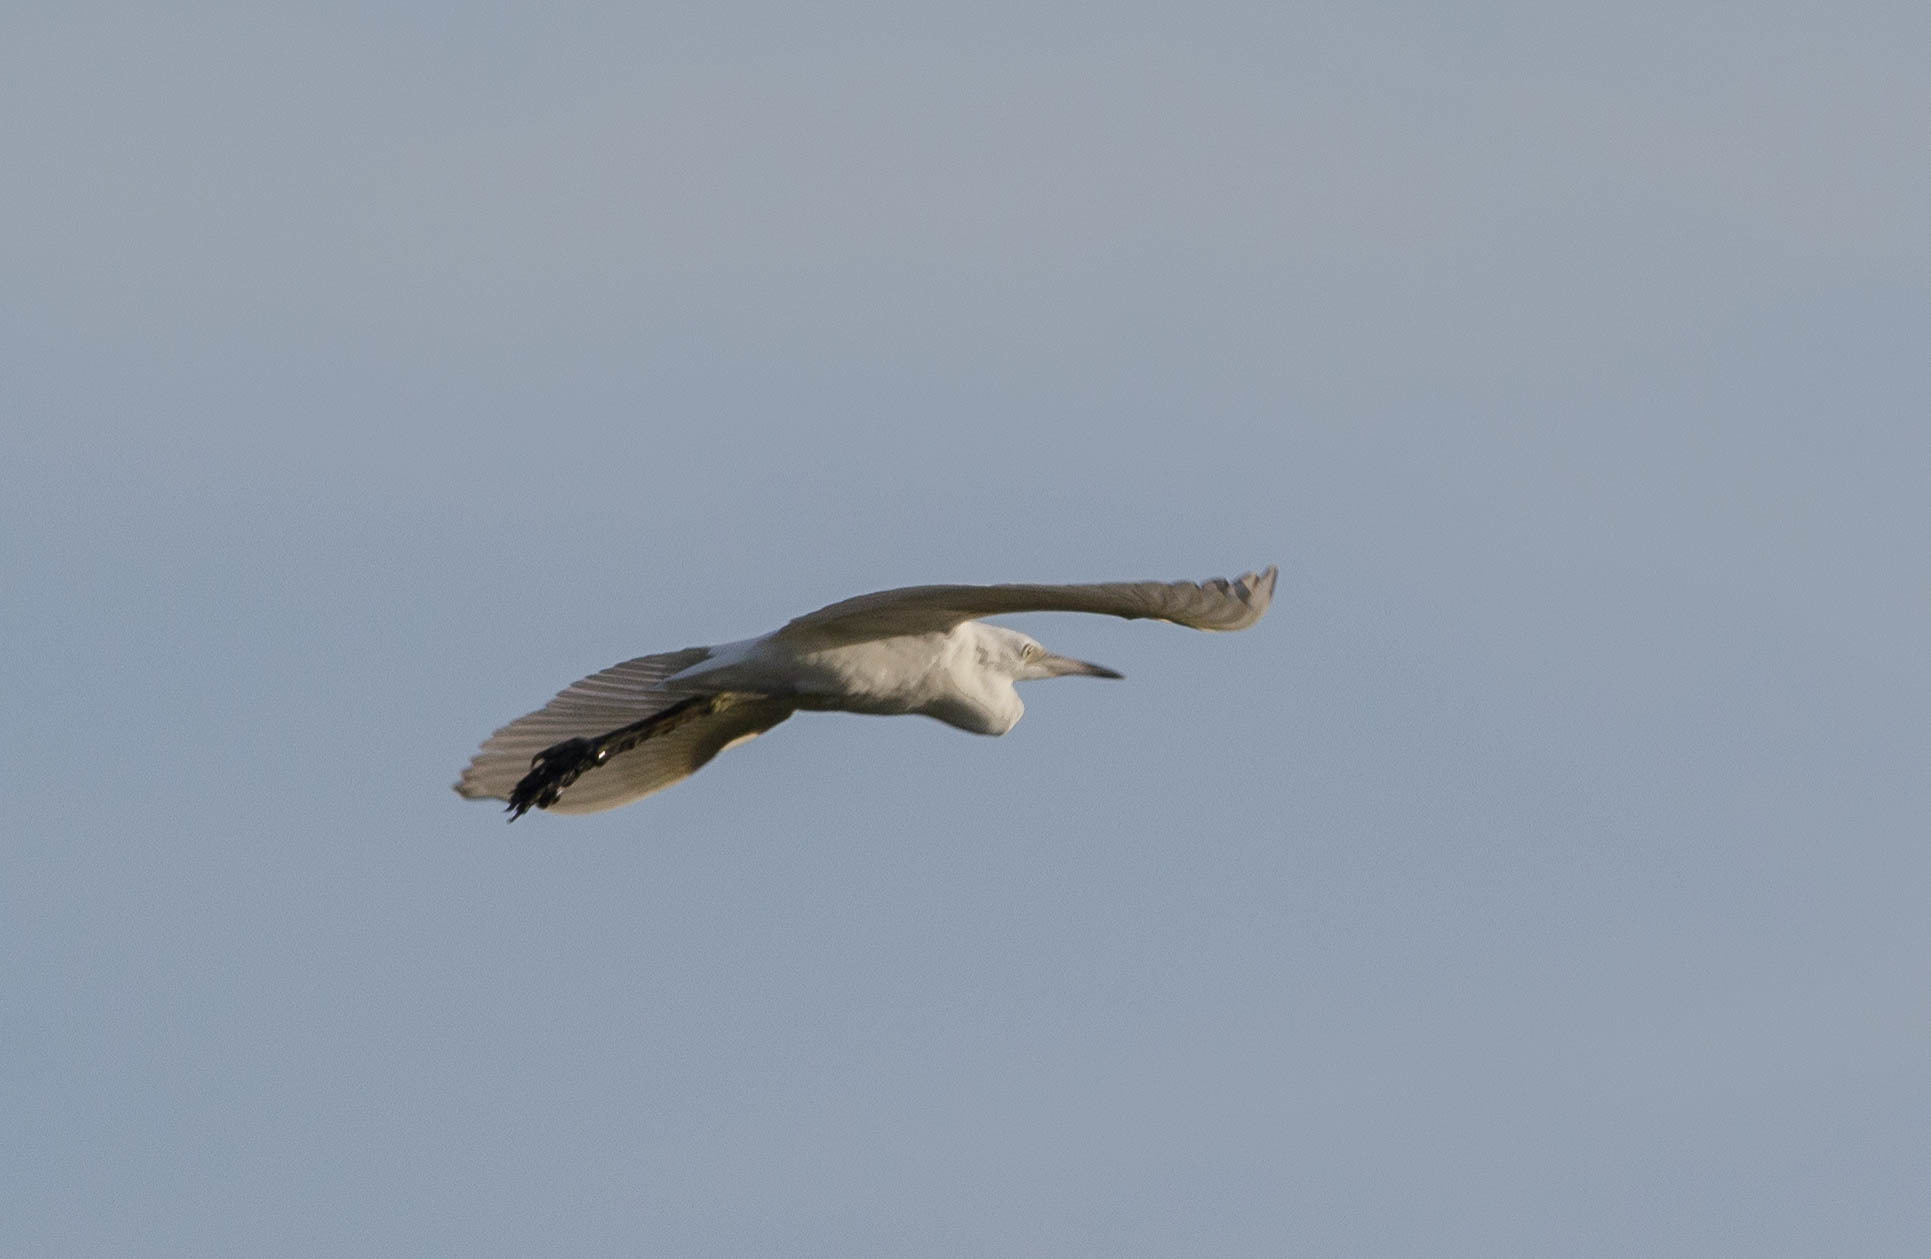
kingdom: Animalia
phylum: Chordata
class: Aves
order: Pelecaniformes
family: Ardeidae
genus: Egretta
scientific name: Egretta caerulea
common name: Little blue heron
